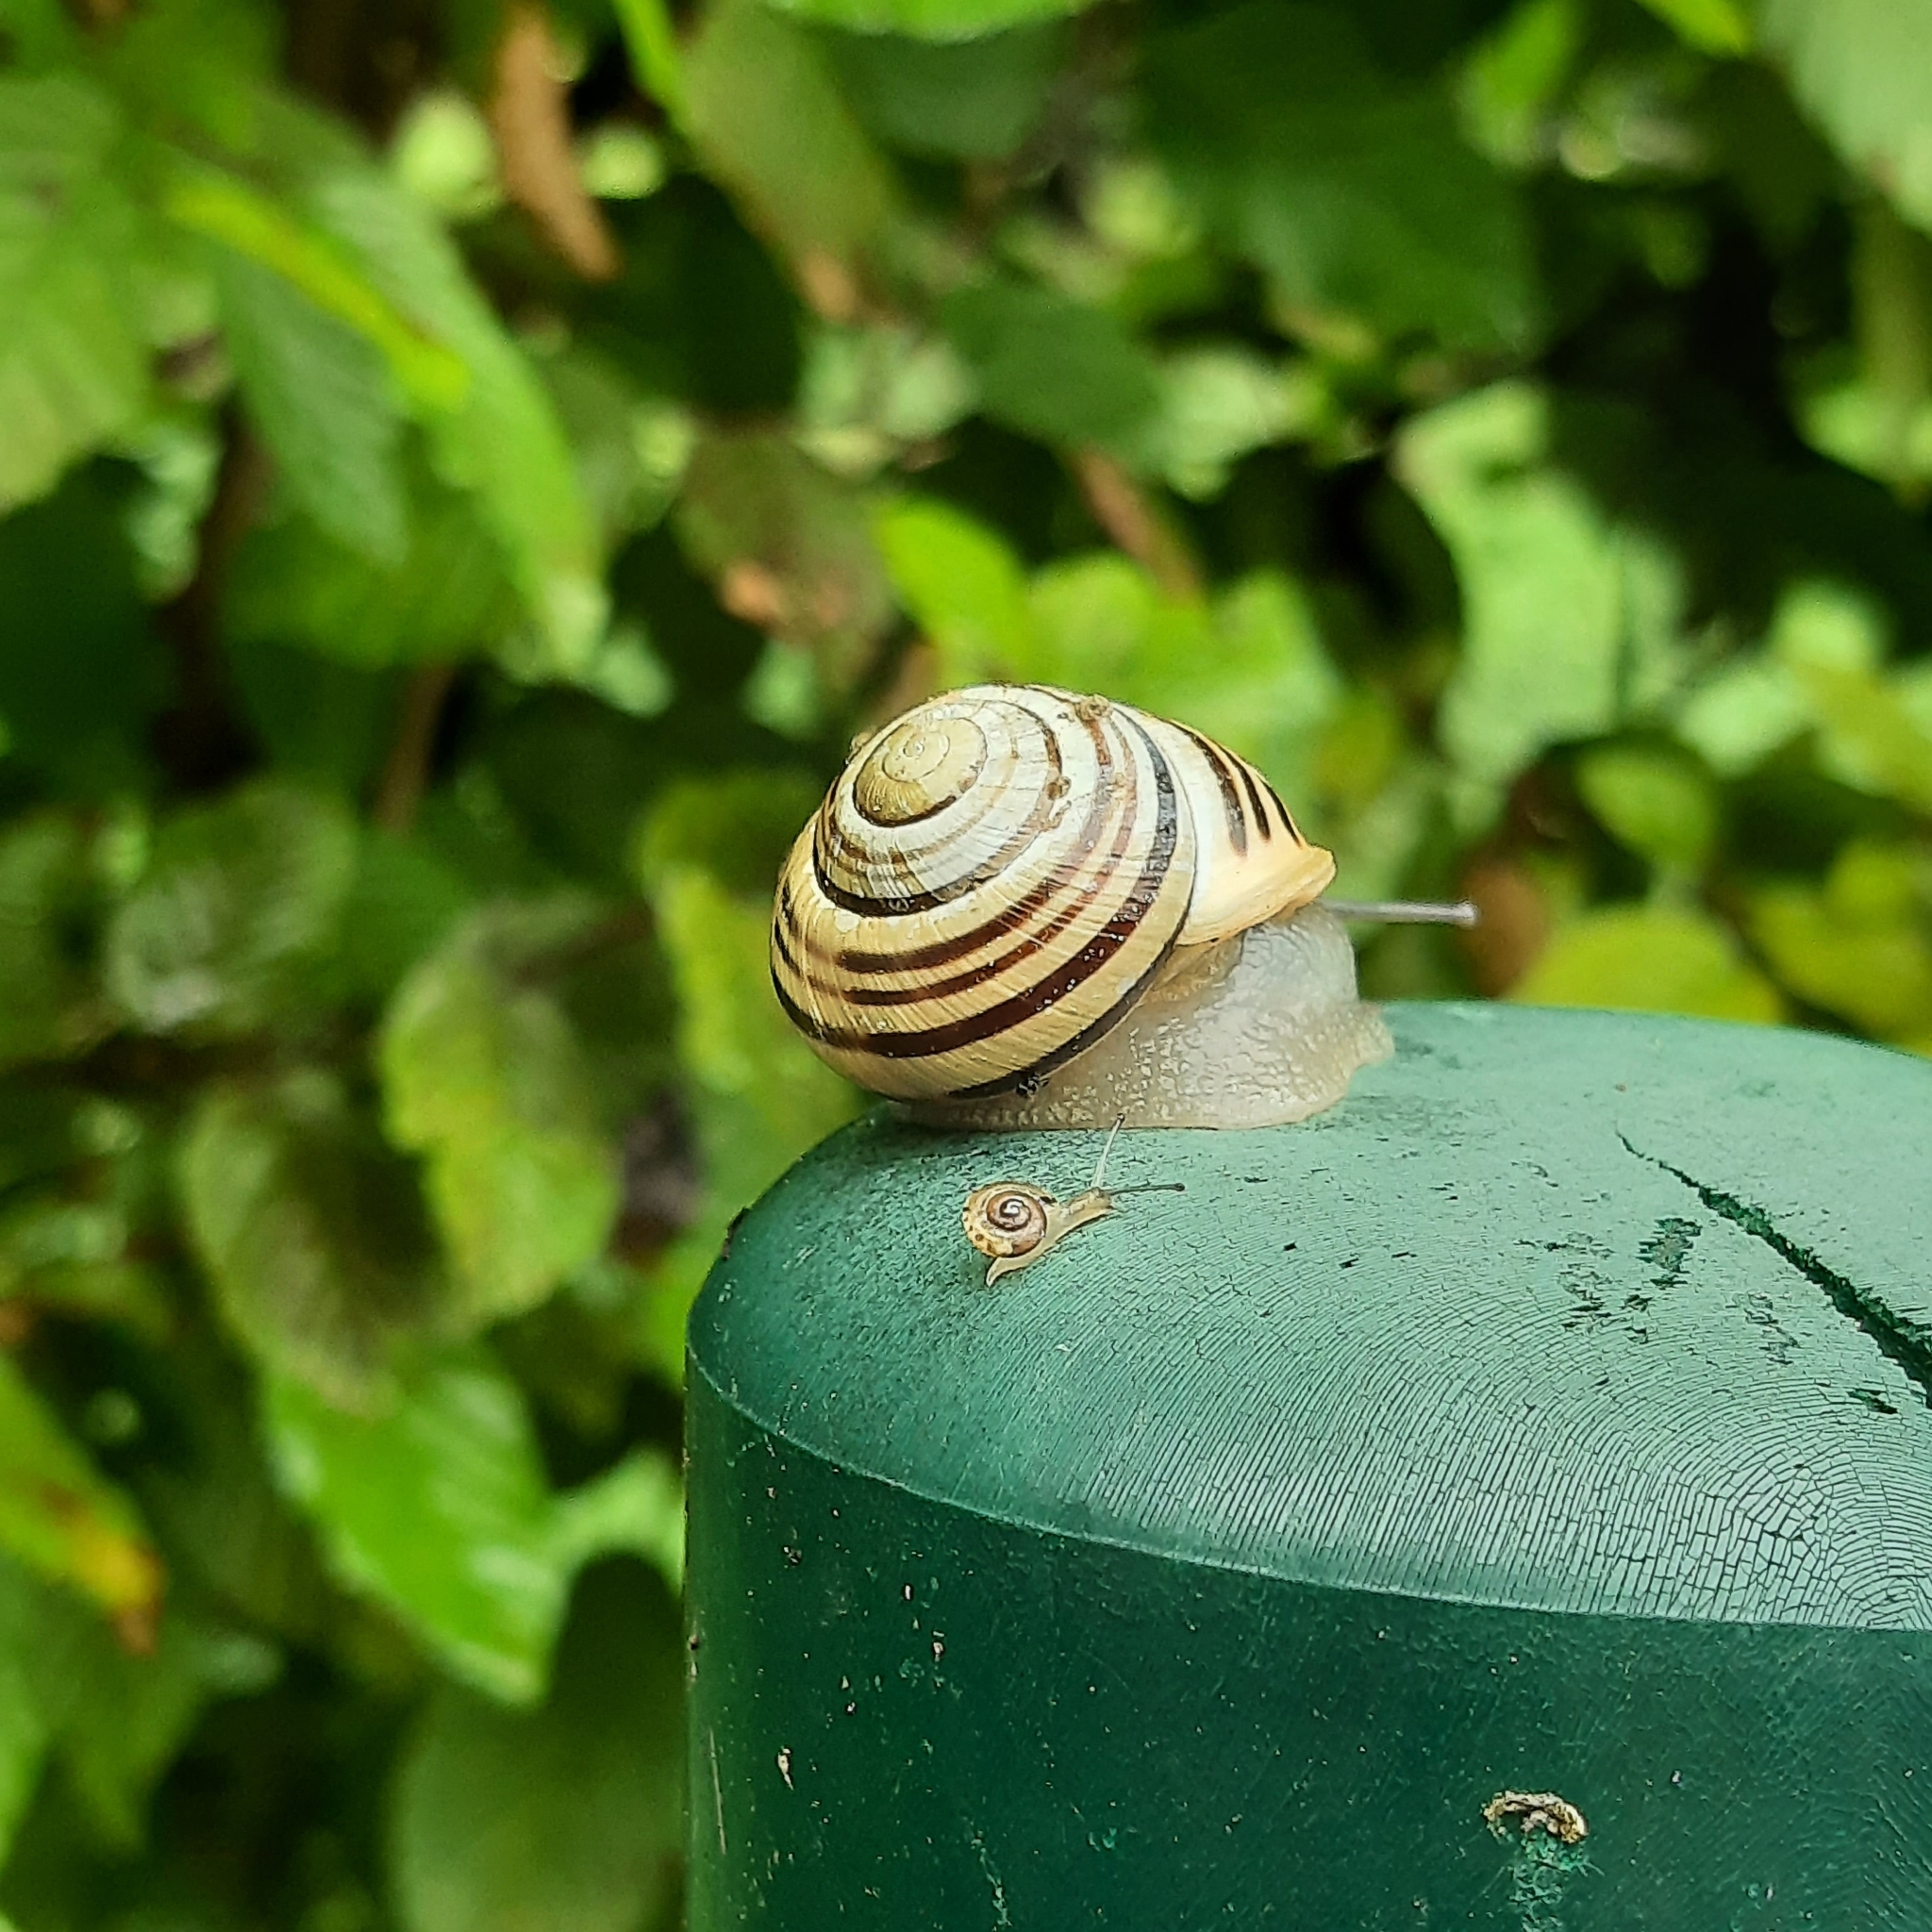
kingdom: Animalia
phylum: Mollusca
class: Gastropoda
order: Stylommatophora
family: Helicidae
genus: Cepaea
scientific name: Cepaea hortensis
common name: White-lip gardensnail
